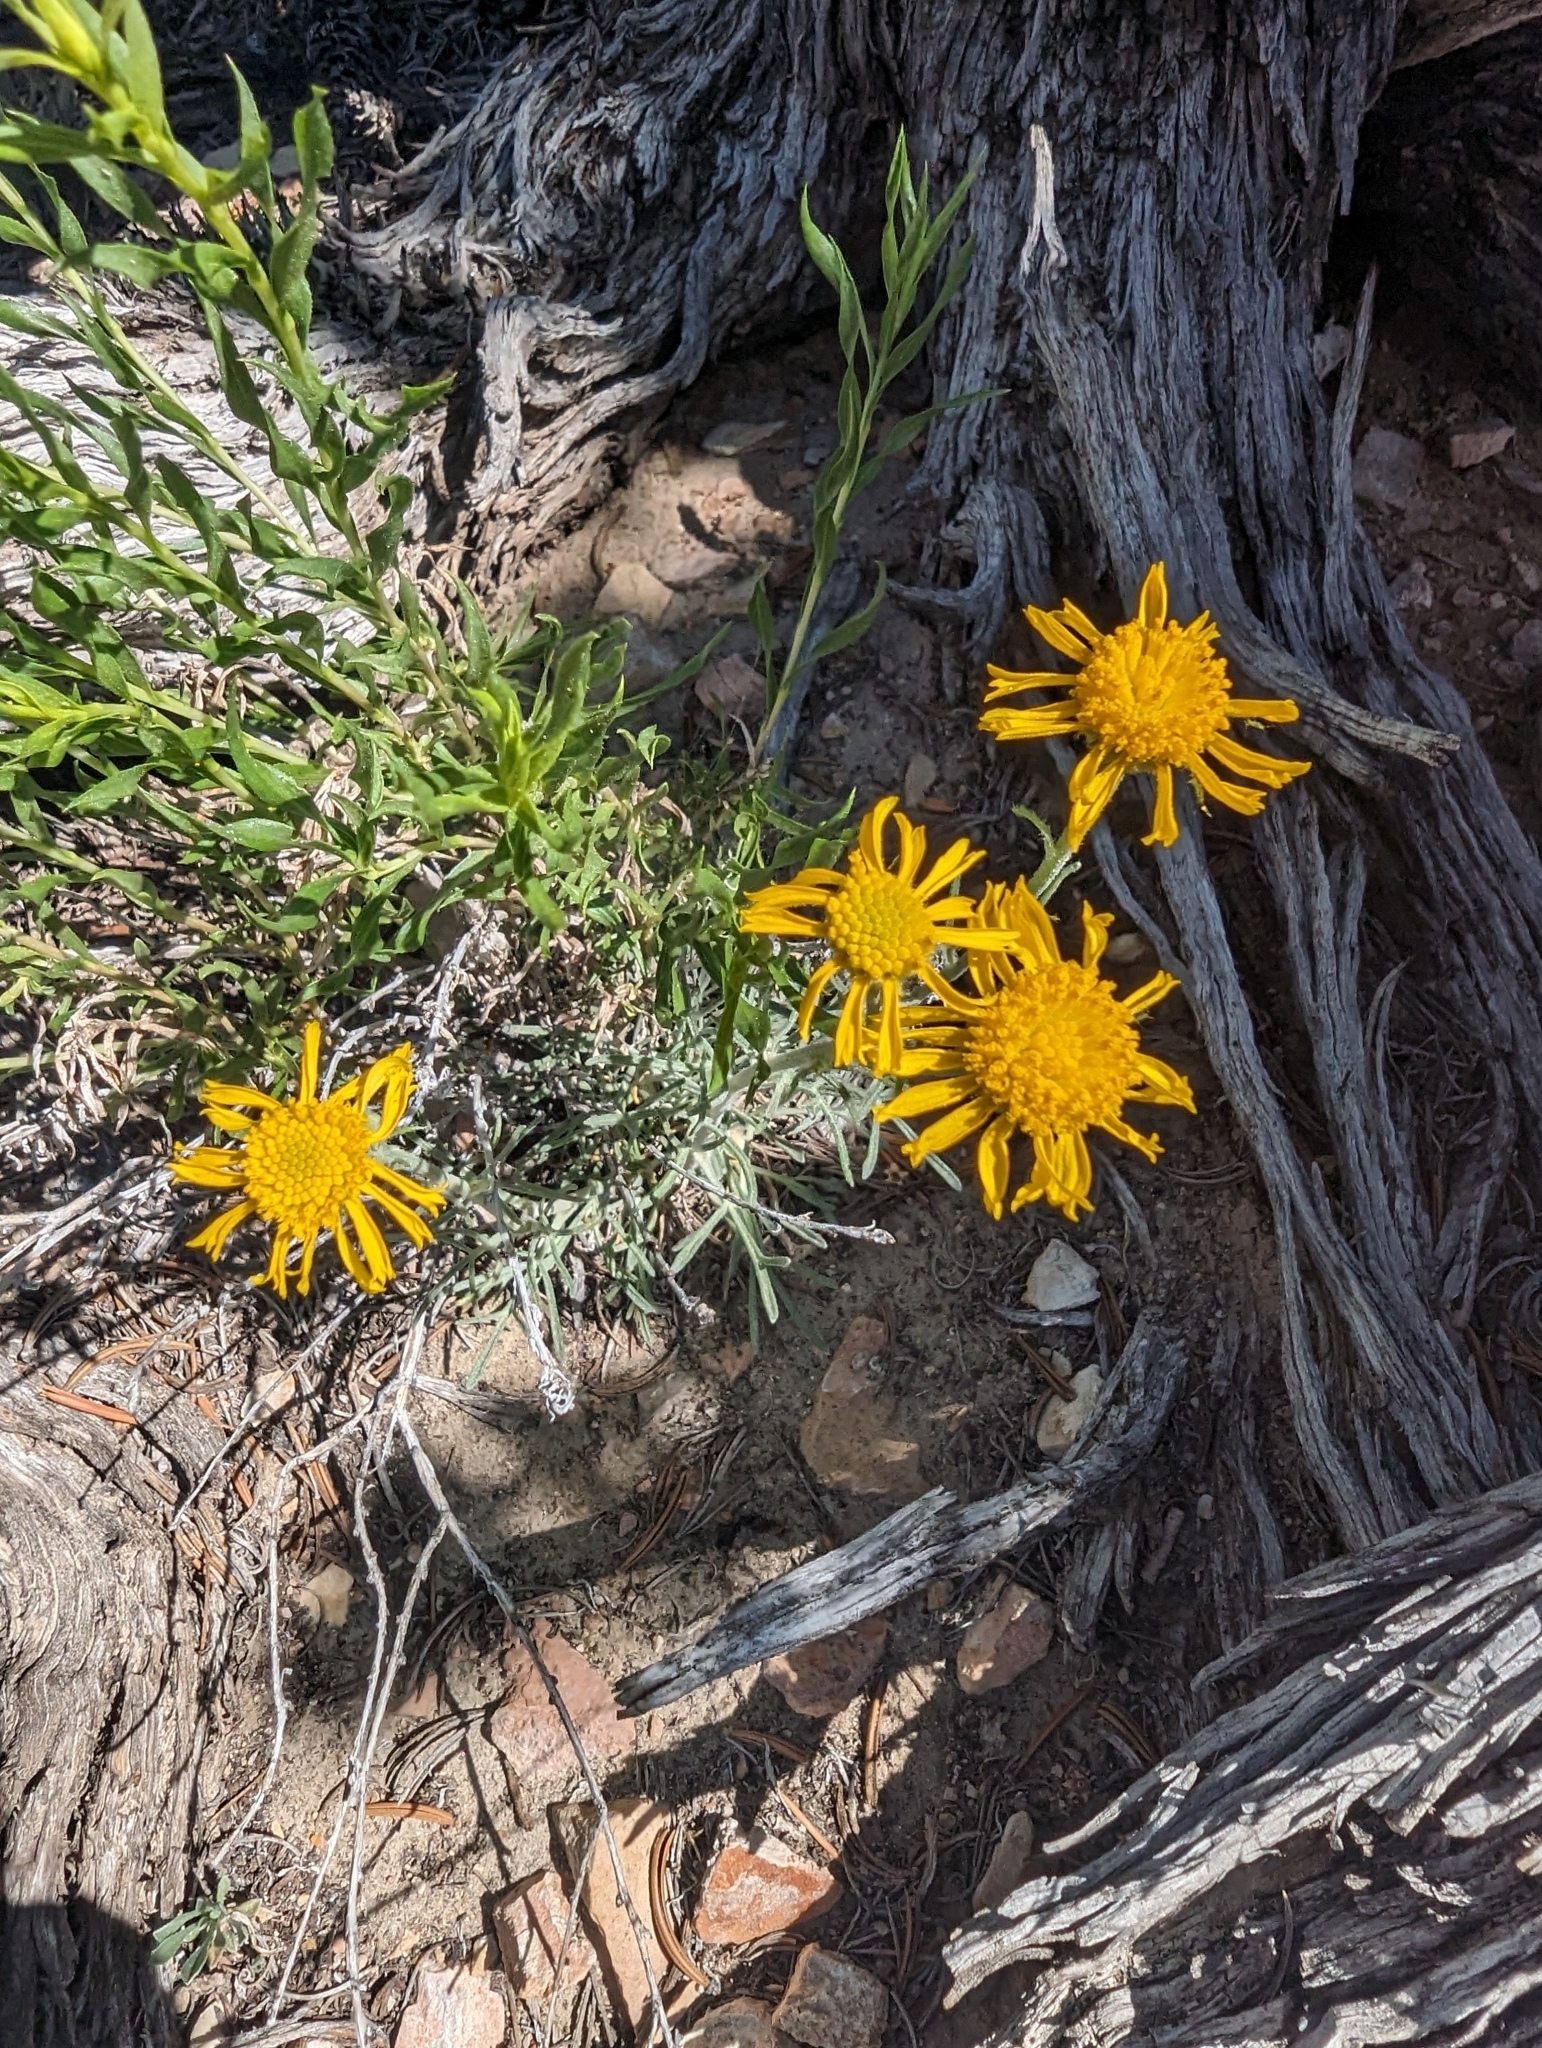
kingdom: Plantae
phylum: Tracheophyta
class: Magnoliopsida
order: Asterales
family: Asteraceae
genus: Hymenoxys
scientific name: Hymenoxys cooperi
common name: Cooper's bitterweed
